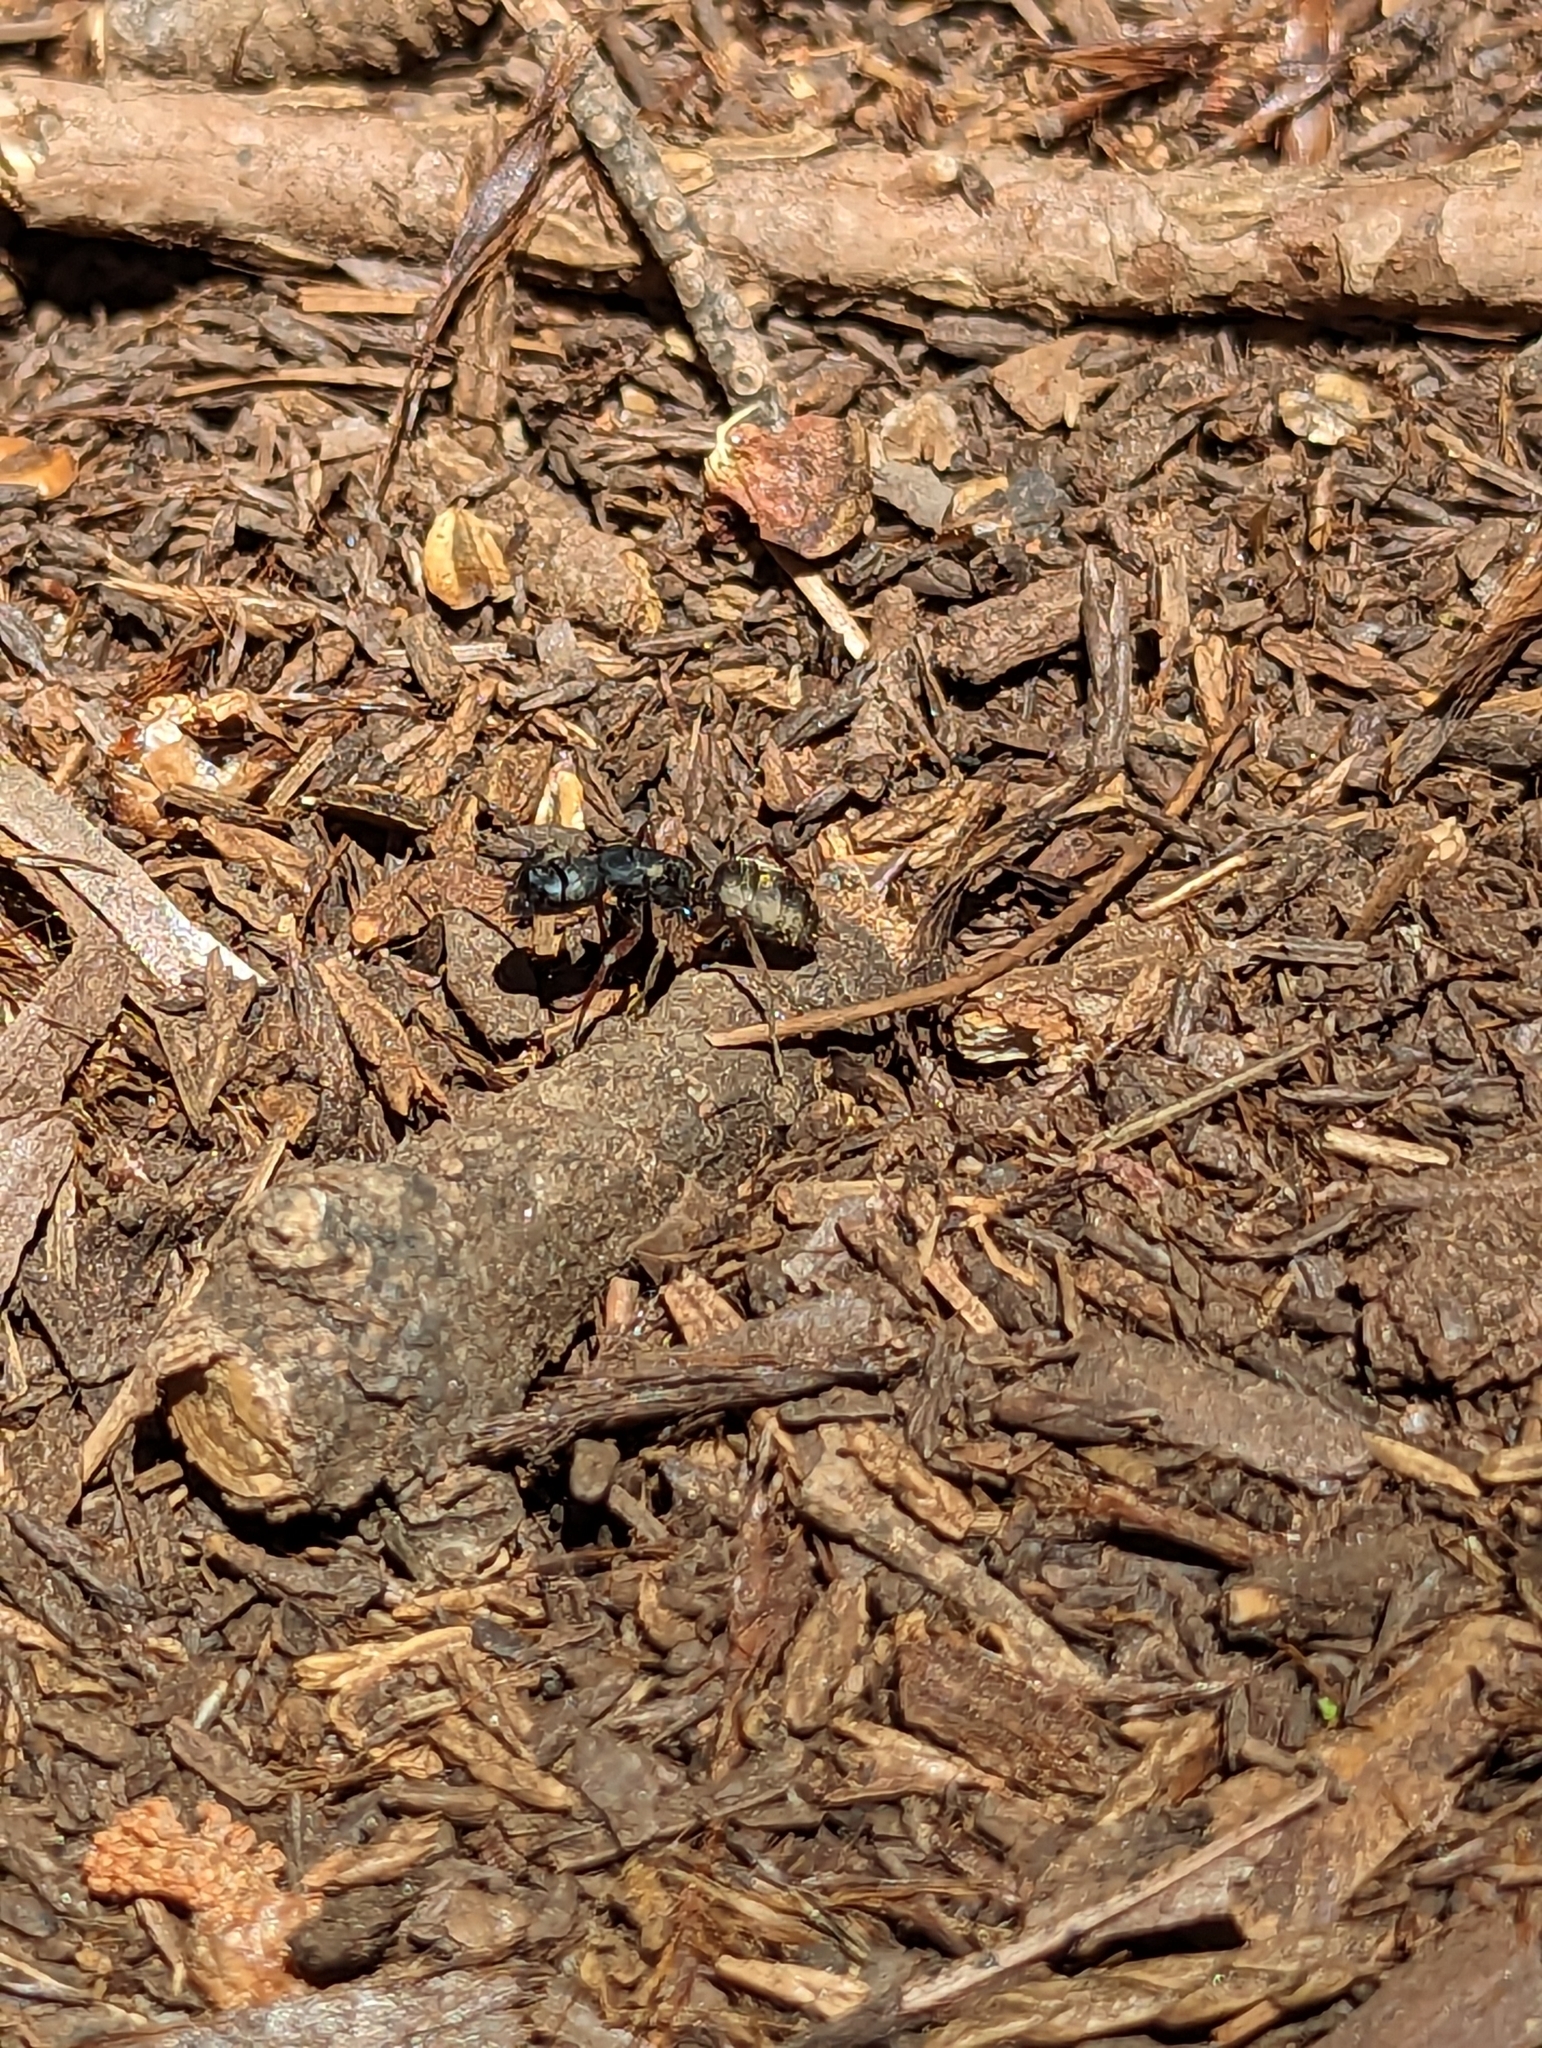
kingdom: Animalia
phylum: Arthropoda
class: Insecta
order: Hymenoptera
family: Formicidae
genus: Camponotus
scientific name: Camponotus modoc
